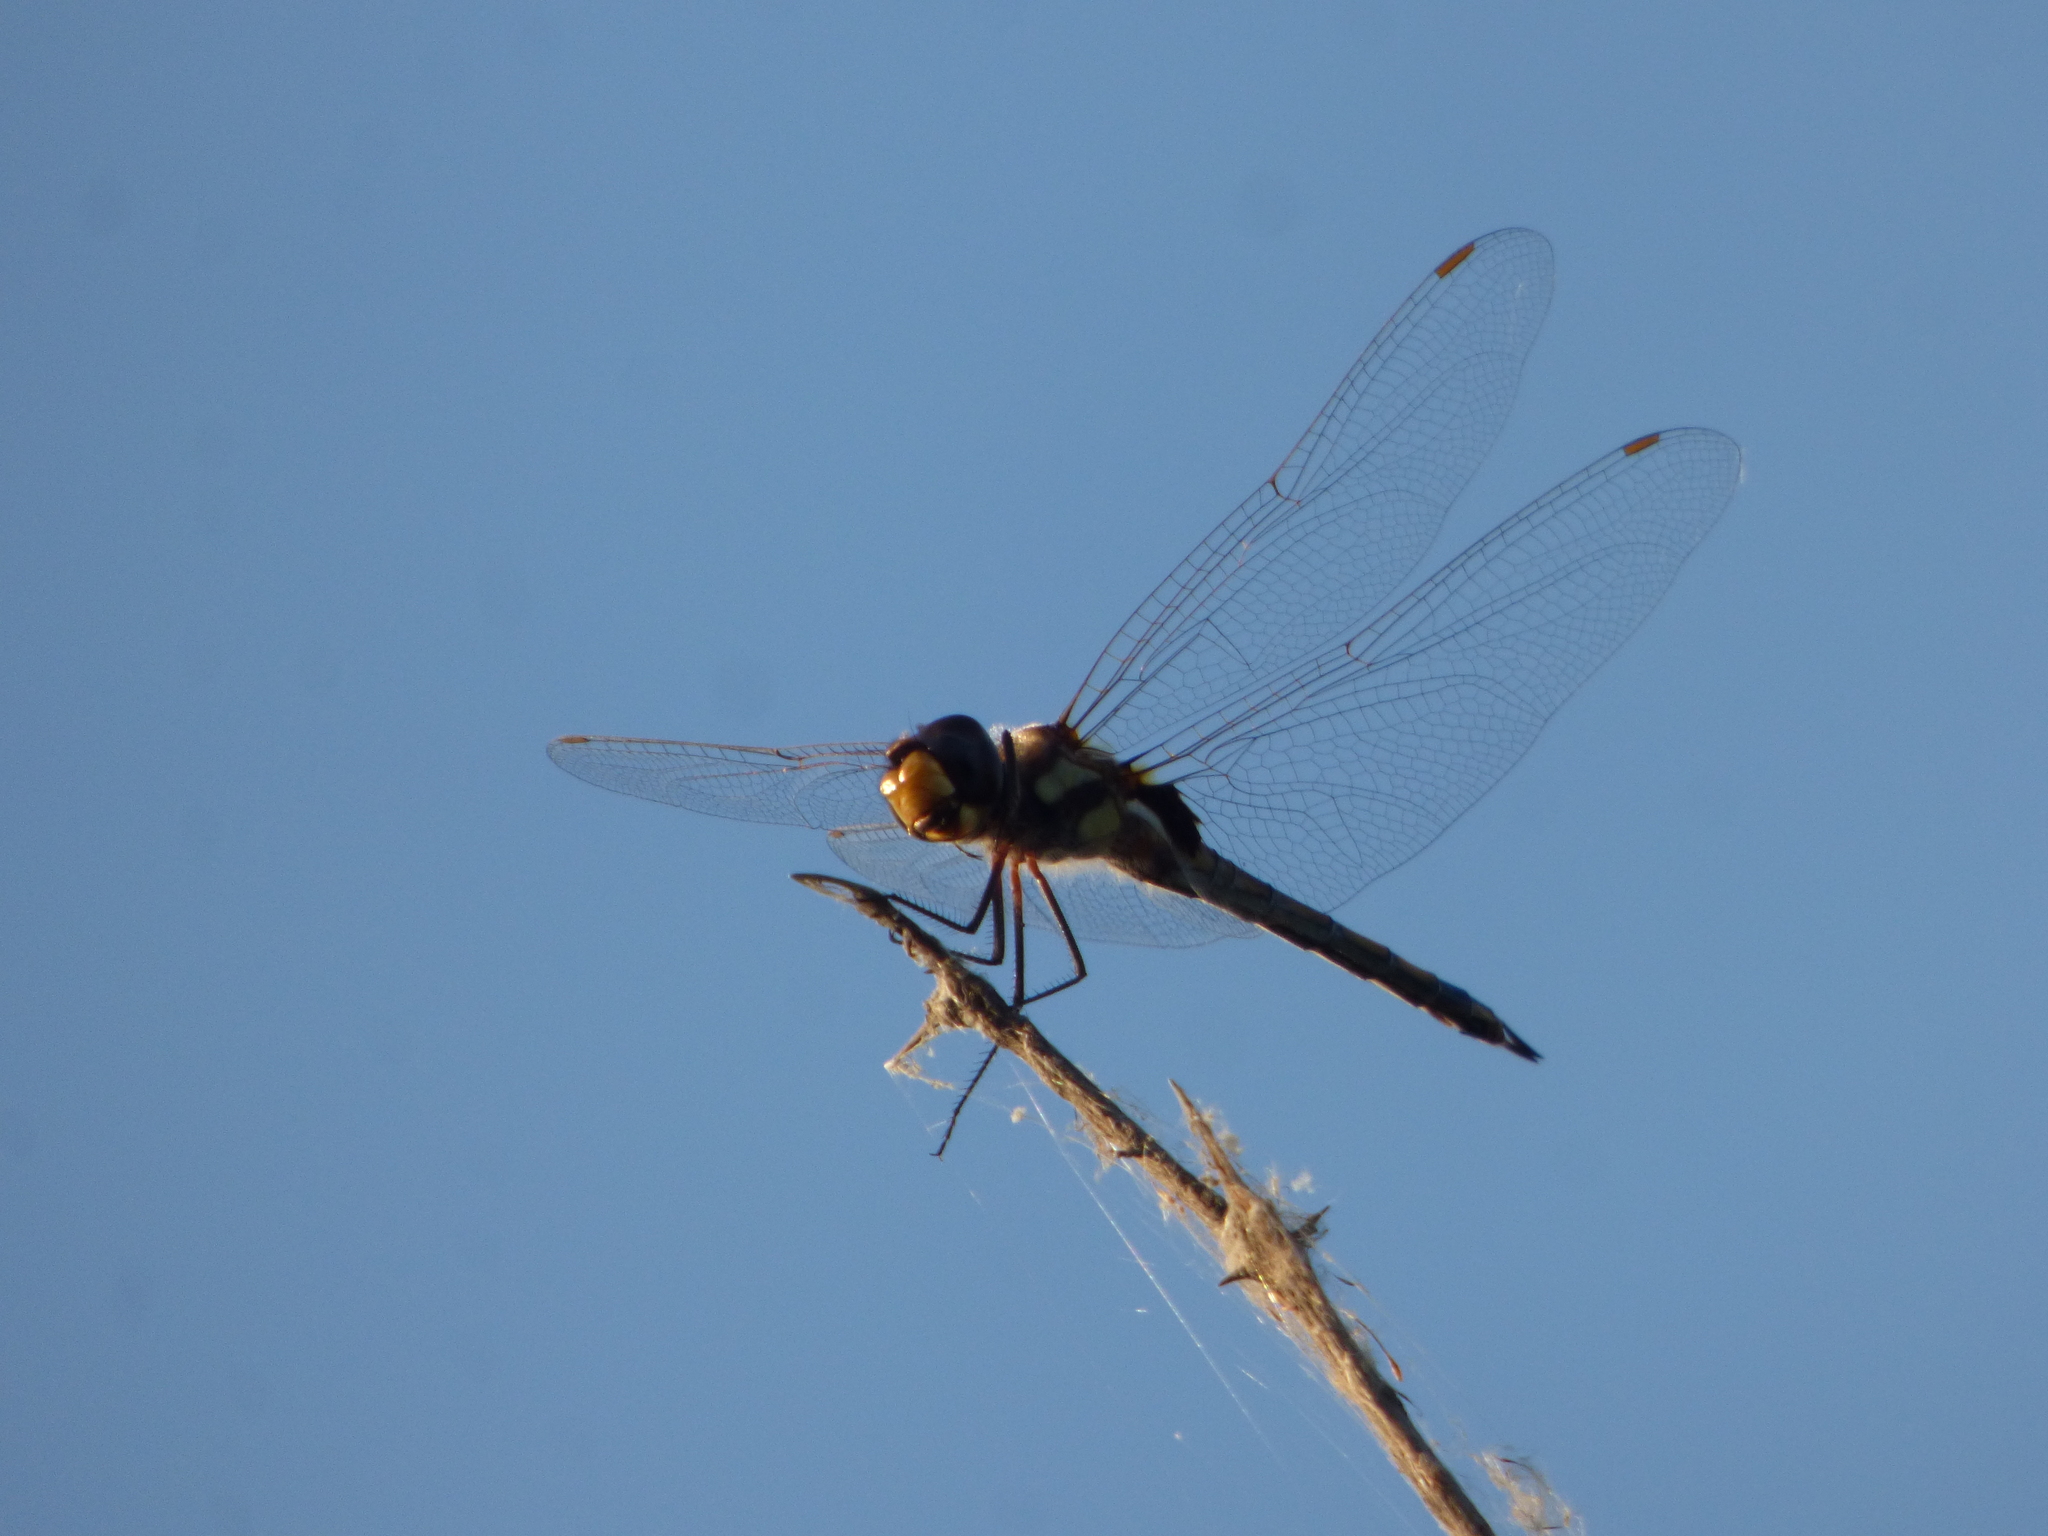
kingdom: Animalia
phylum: Arthropoda
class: Insecta
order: Odonata
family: Libellulidae
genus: Tramea
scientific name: Tramea cophysa
